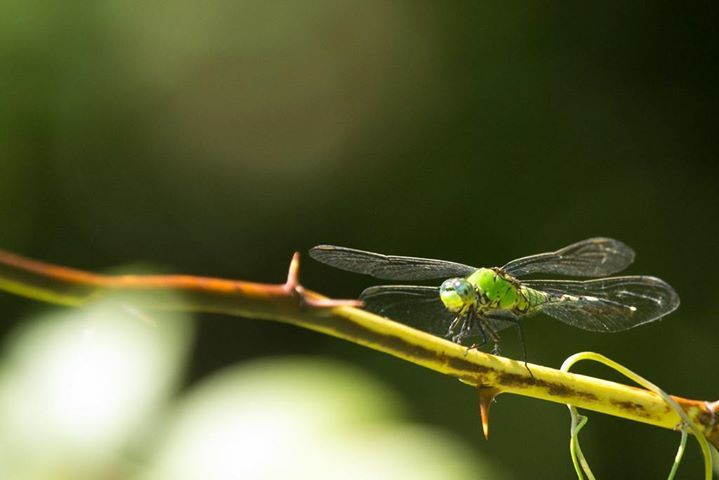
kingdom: Animalia
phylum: Arthropoda
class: Insecta
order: Odonata
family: Libellulidae
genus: Erythemis
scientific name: Erythemis simplicicollis
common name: Eastern pondhawk
